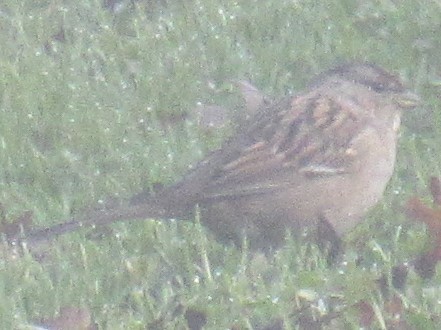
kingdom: Animalia
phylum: Chordata
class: Aves
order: Passeriformes
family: Passerellidae
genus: Zonotrichia
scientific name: Zonotrichia atricapilla
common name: Golden-crowned sparrow
